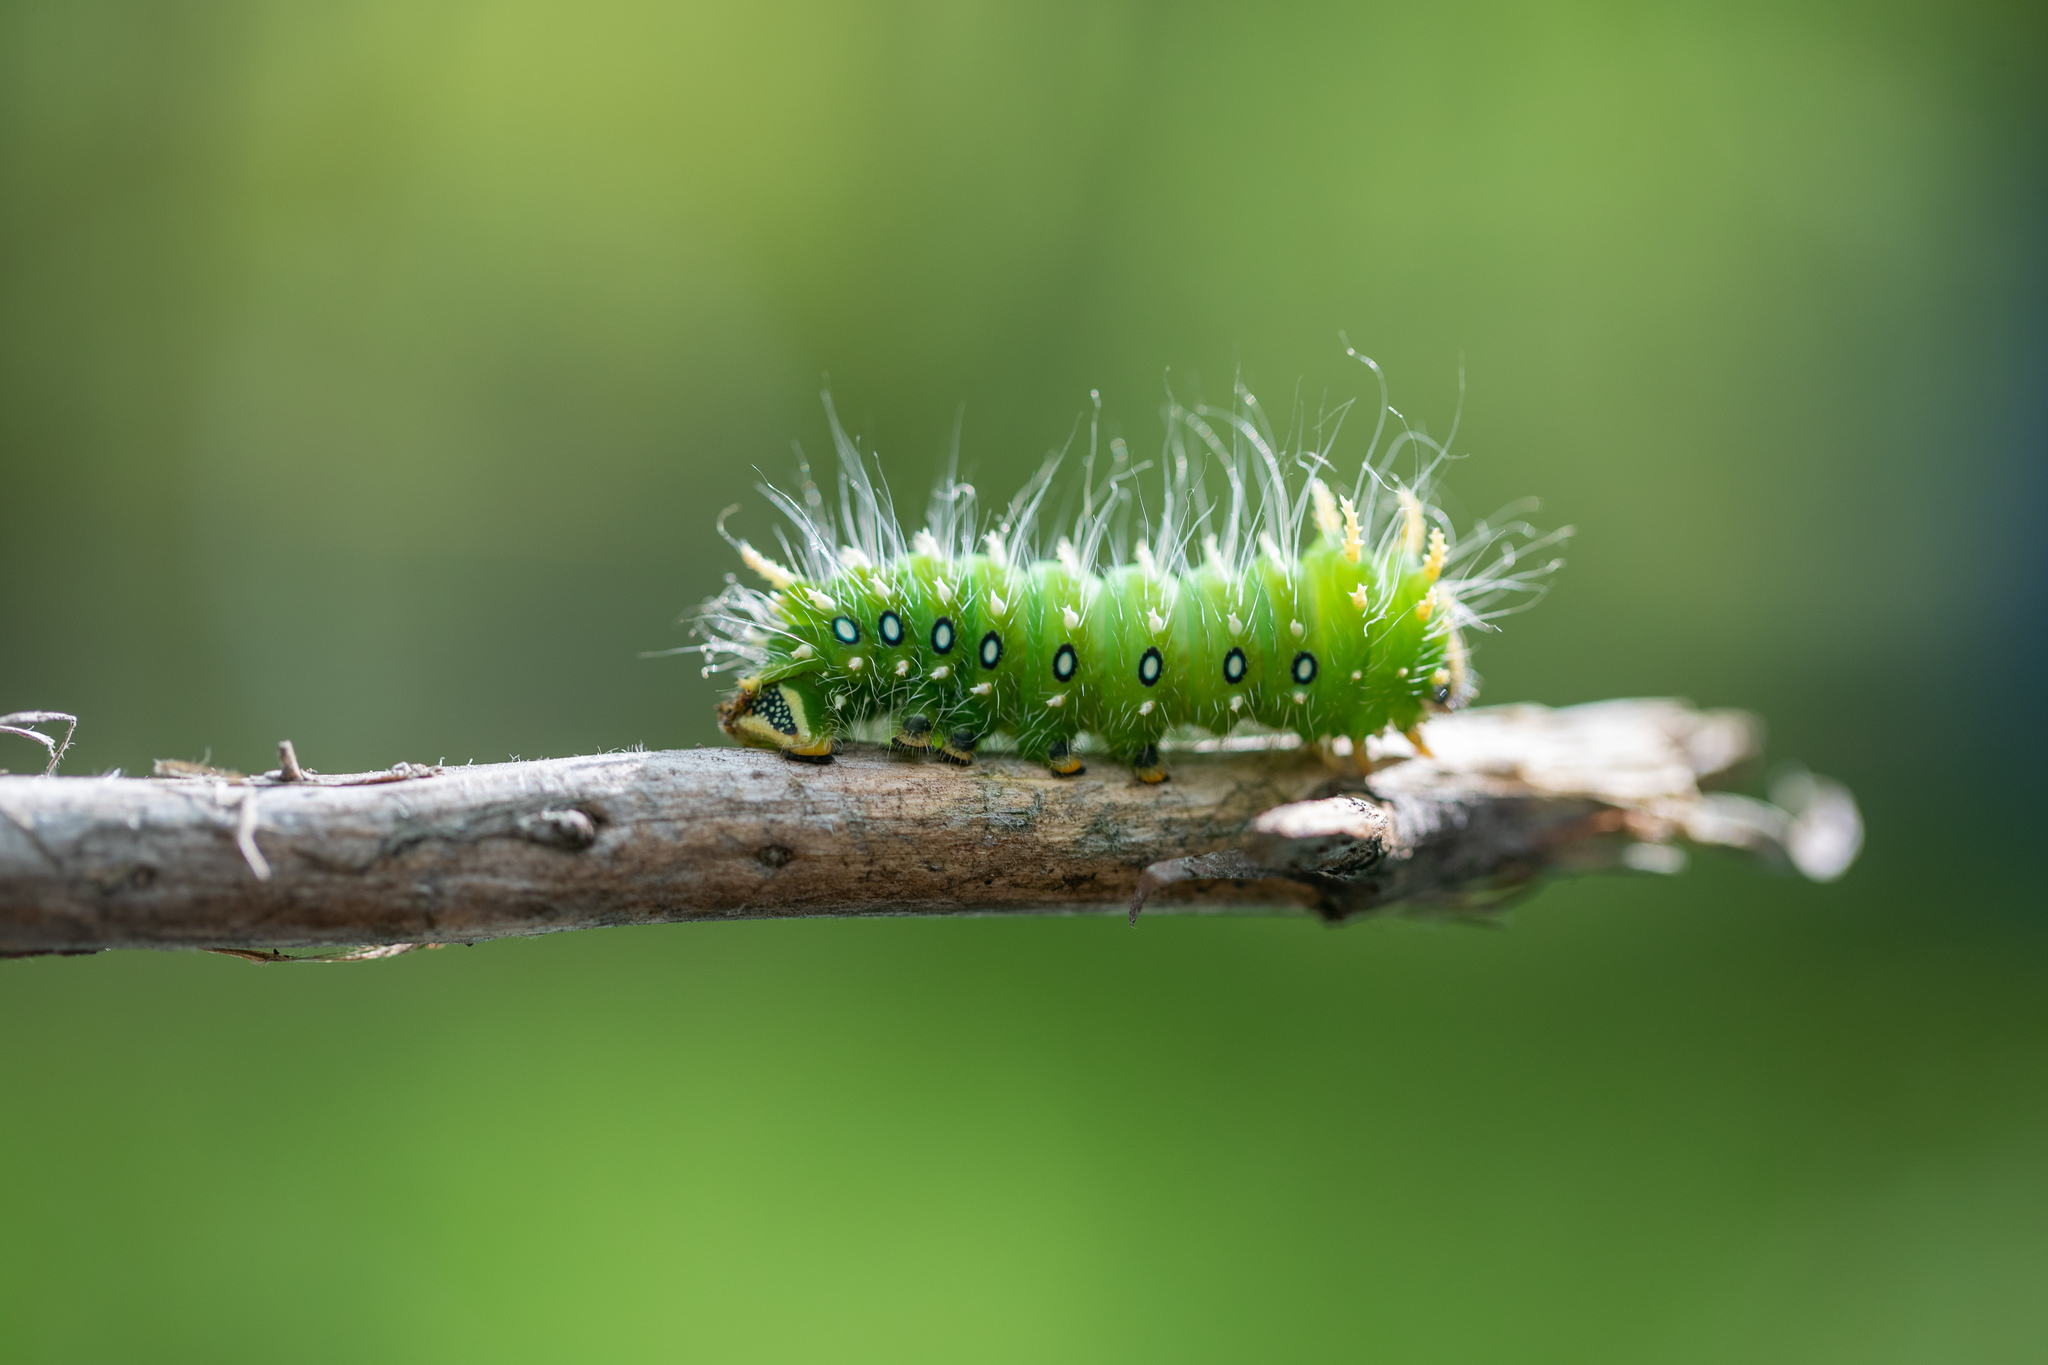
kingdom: Animalia
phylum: Arthropoda
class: Insecta
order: Lepidoptera
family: Saturniidae
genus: Eacles
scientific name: Eacles
